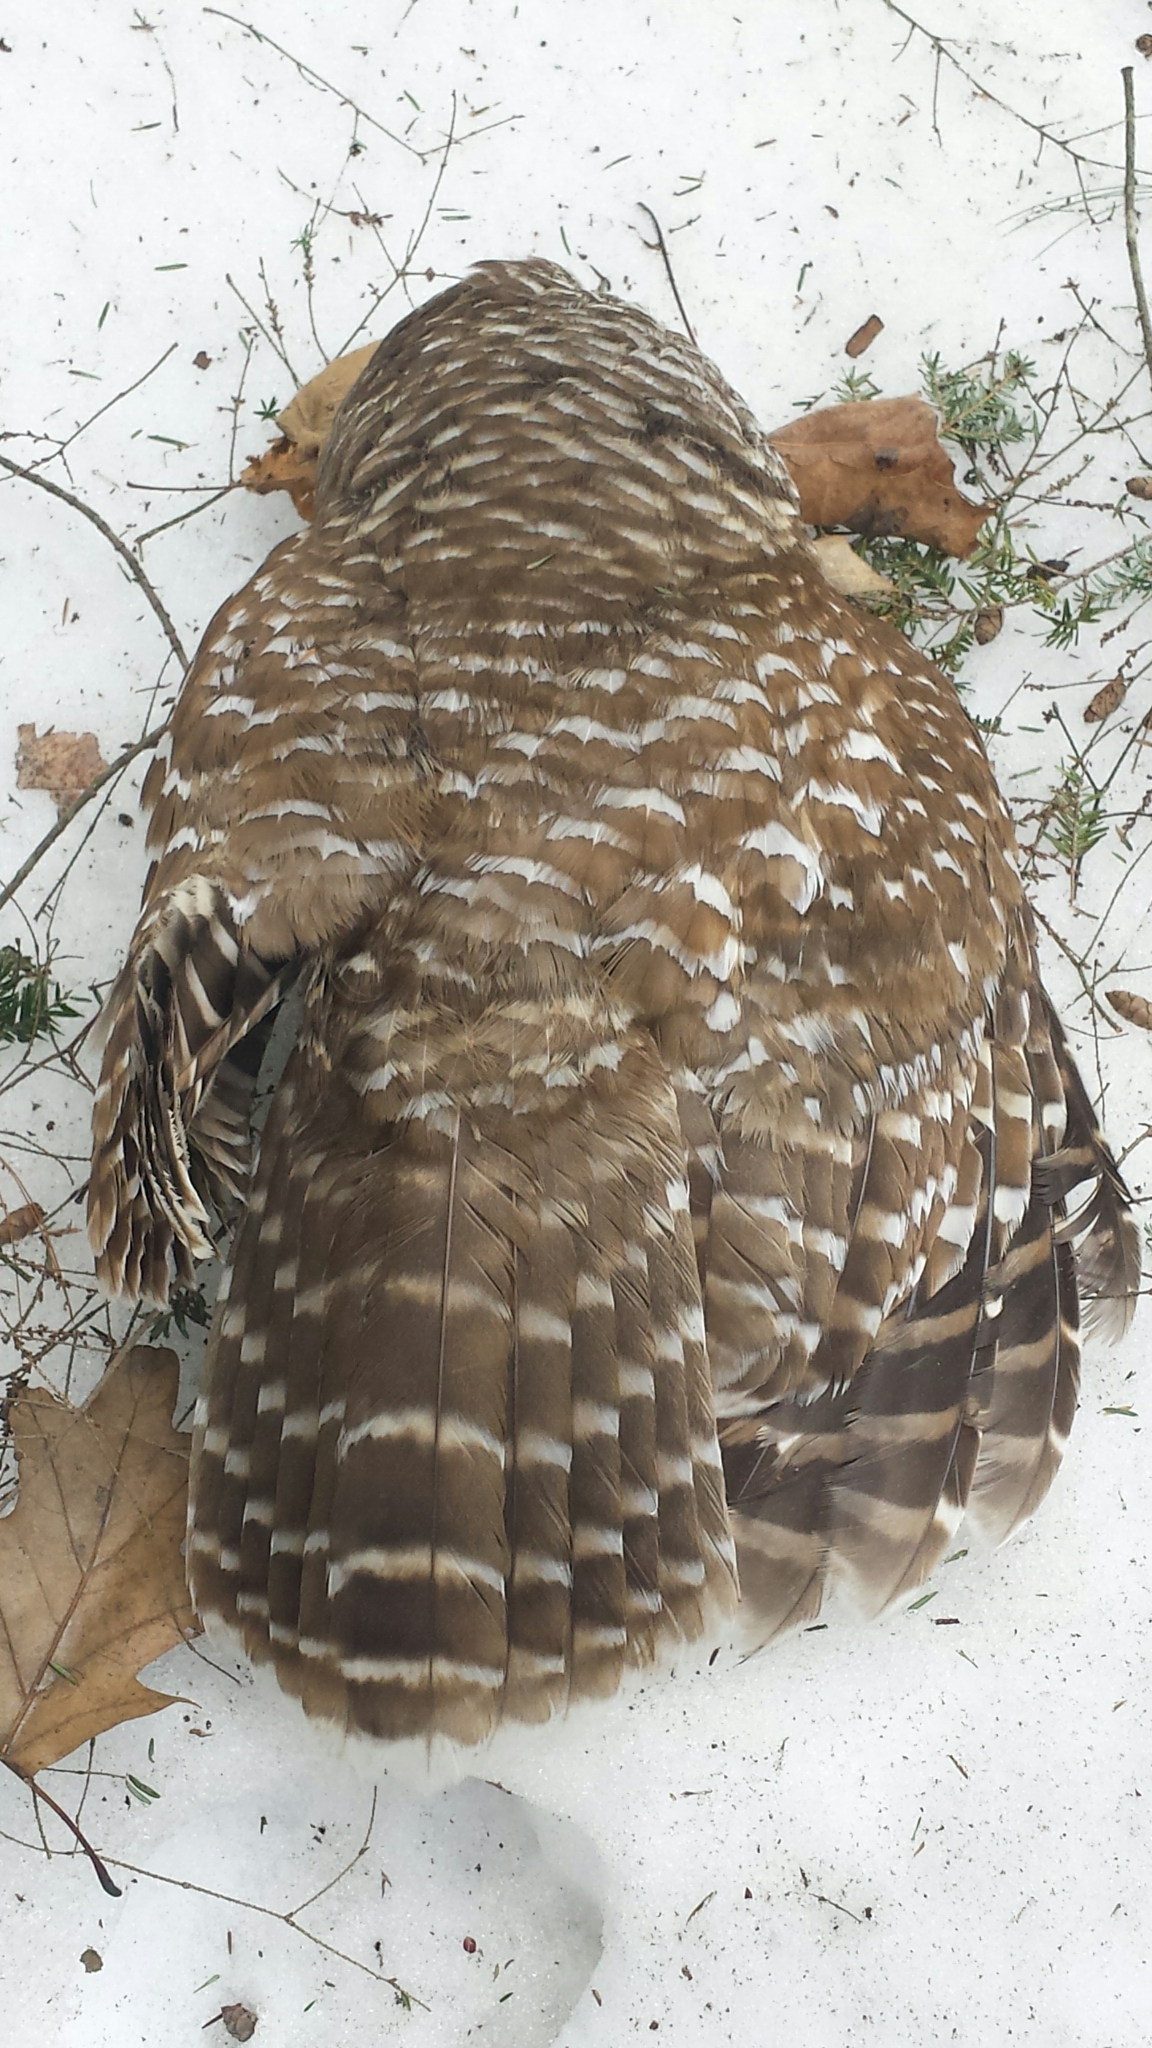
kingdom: Animalia
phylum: Chordata
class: Aves
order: Strigiformes
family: Strigidae
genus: Strix
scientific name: Strix varia
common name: Barred owl
